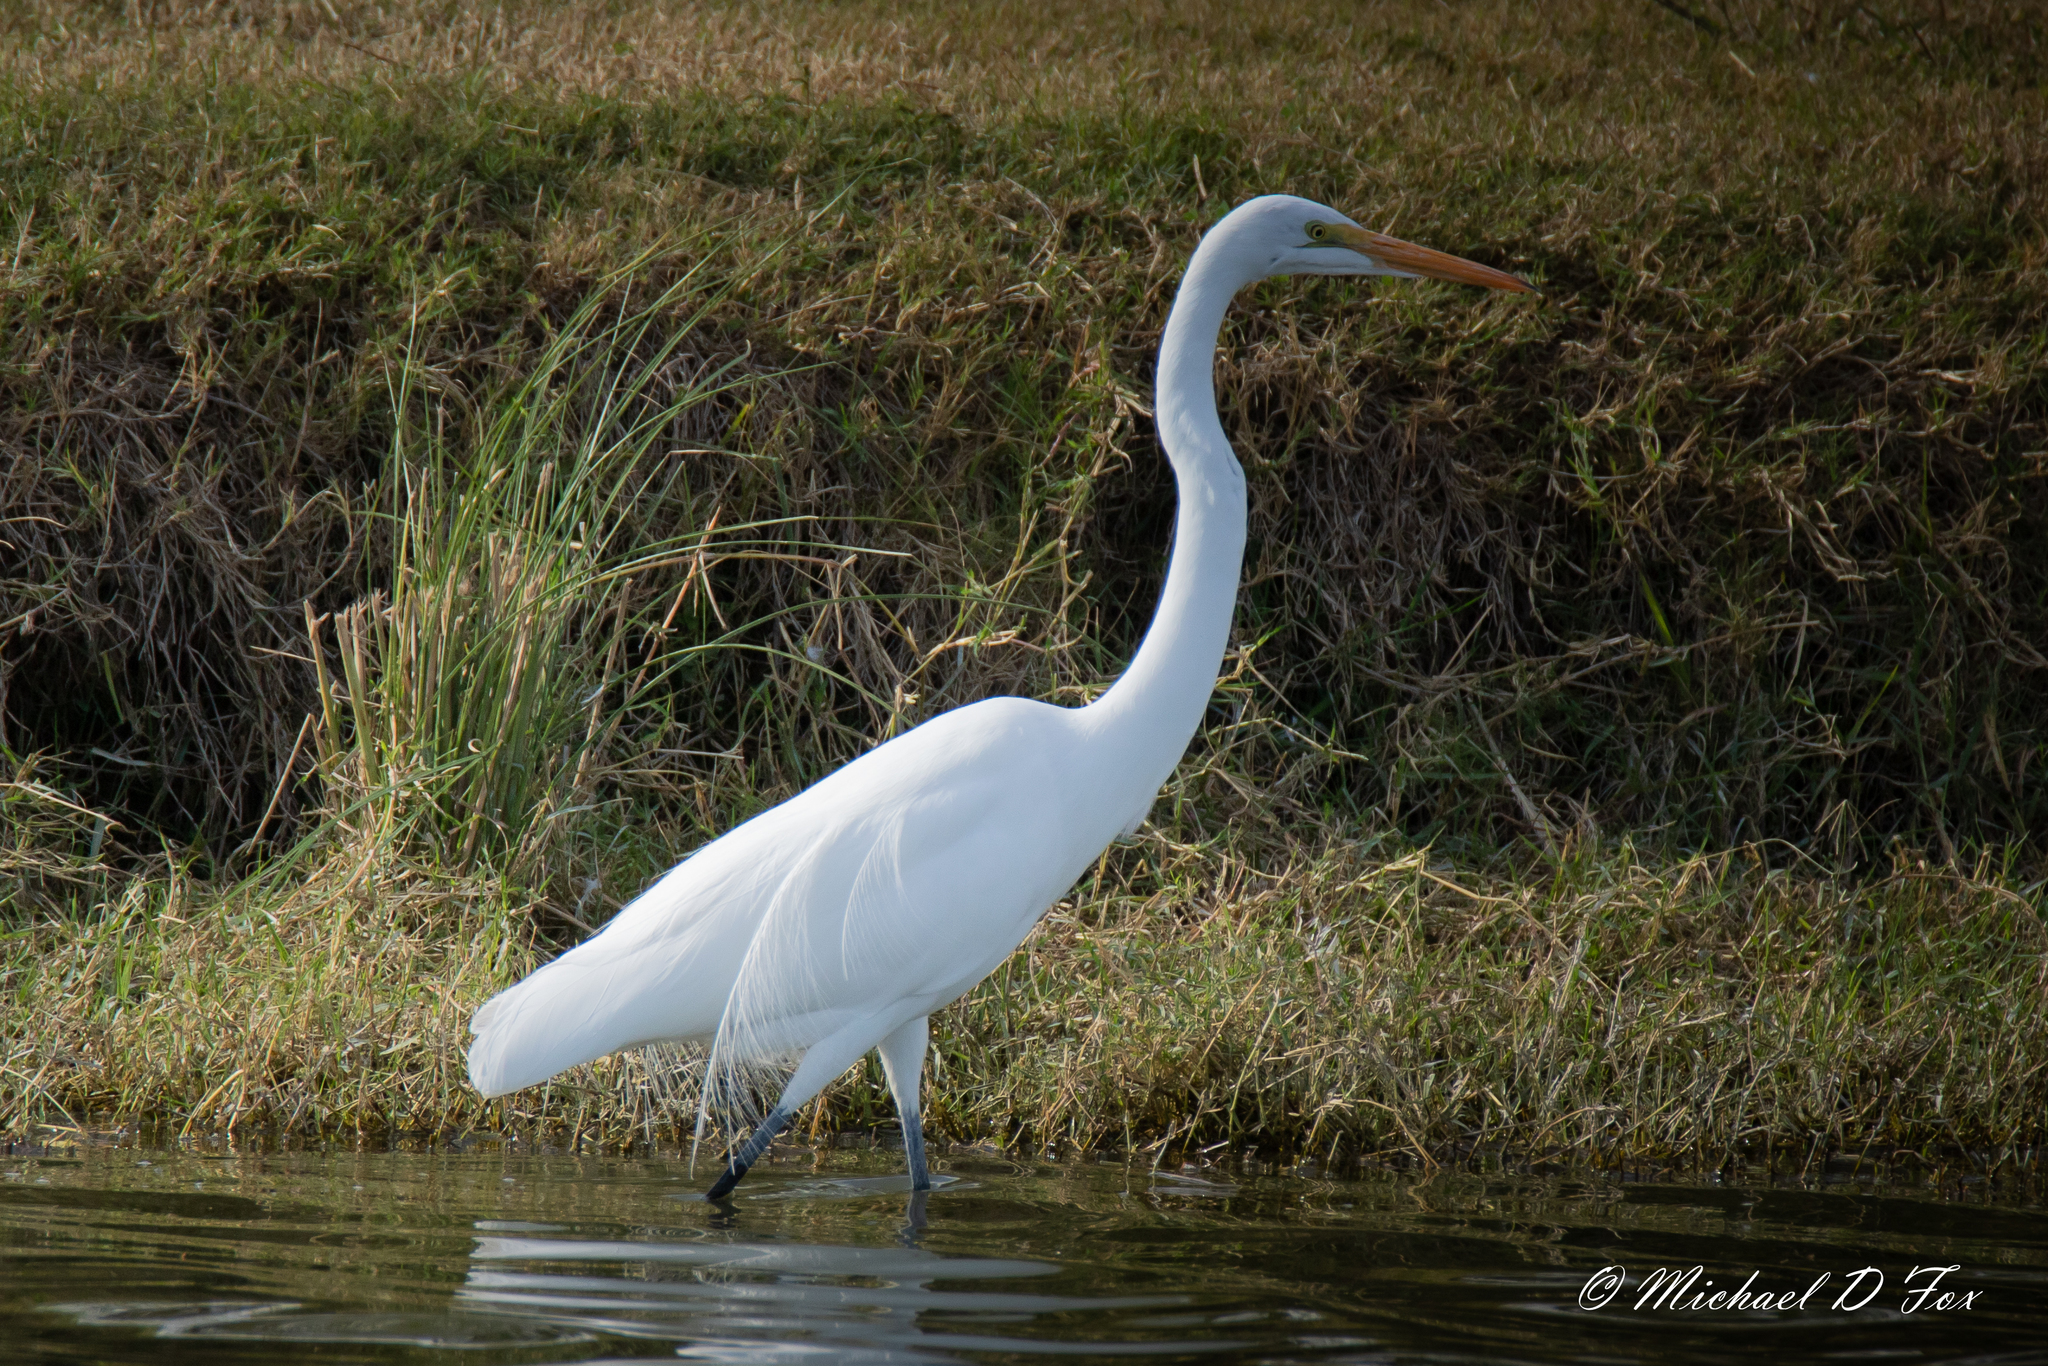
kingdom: Animalia
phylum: Chordata
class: Aves
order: Pelecaniformes
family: Ardeidae
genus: Ardea
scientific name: Ardea alba
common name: Great egret
